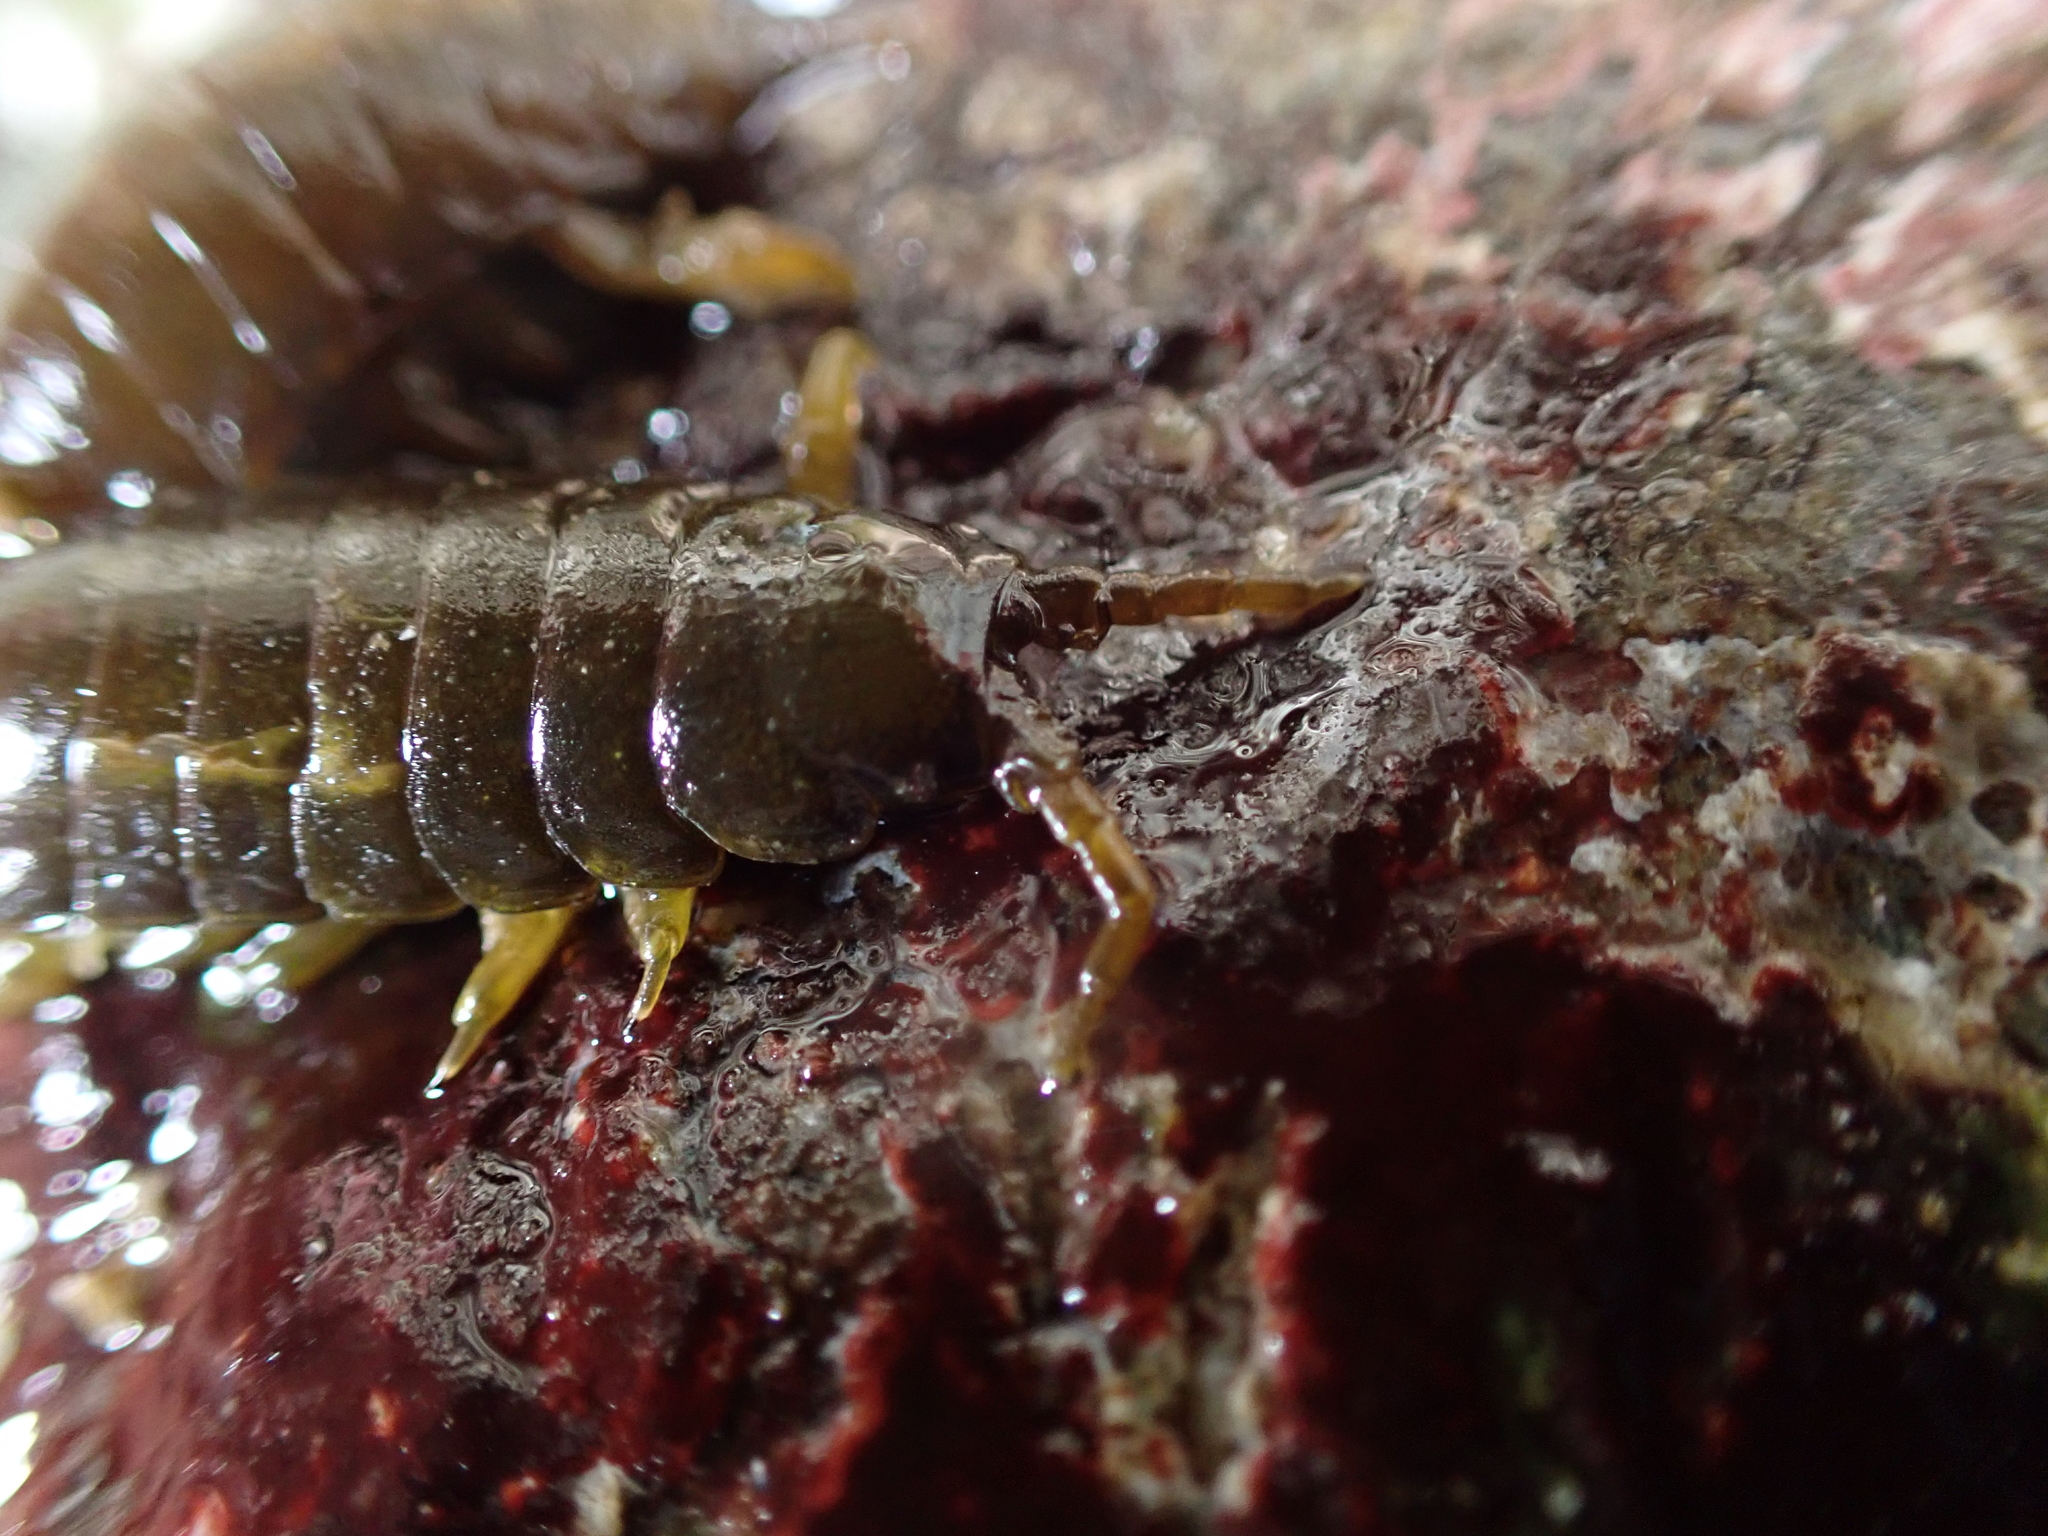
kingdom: Animalia
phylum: Arthropoda
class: Malacostraca
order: Isopoda
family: Idoteidae
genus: Pentidotea
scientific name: Pentidotea wosnesenskii
